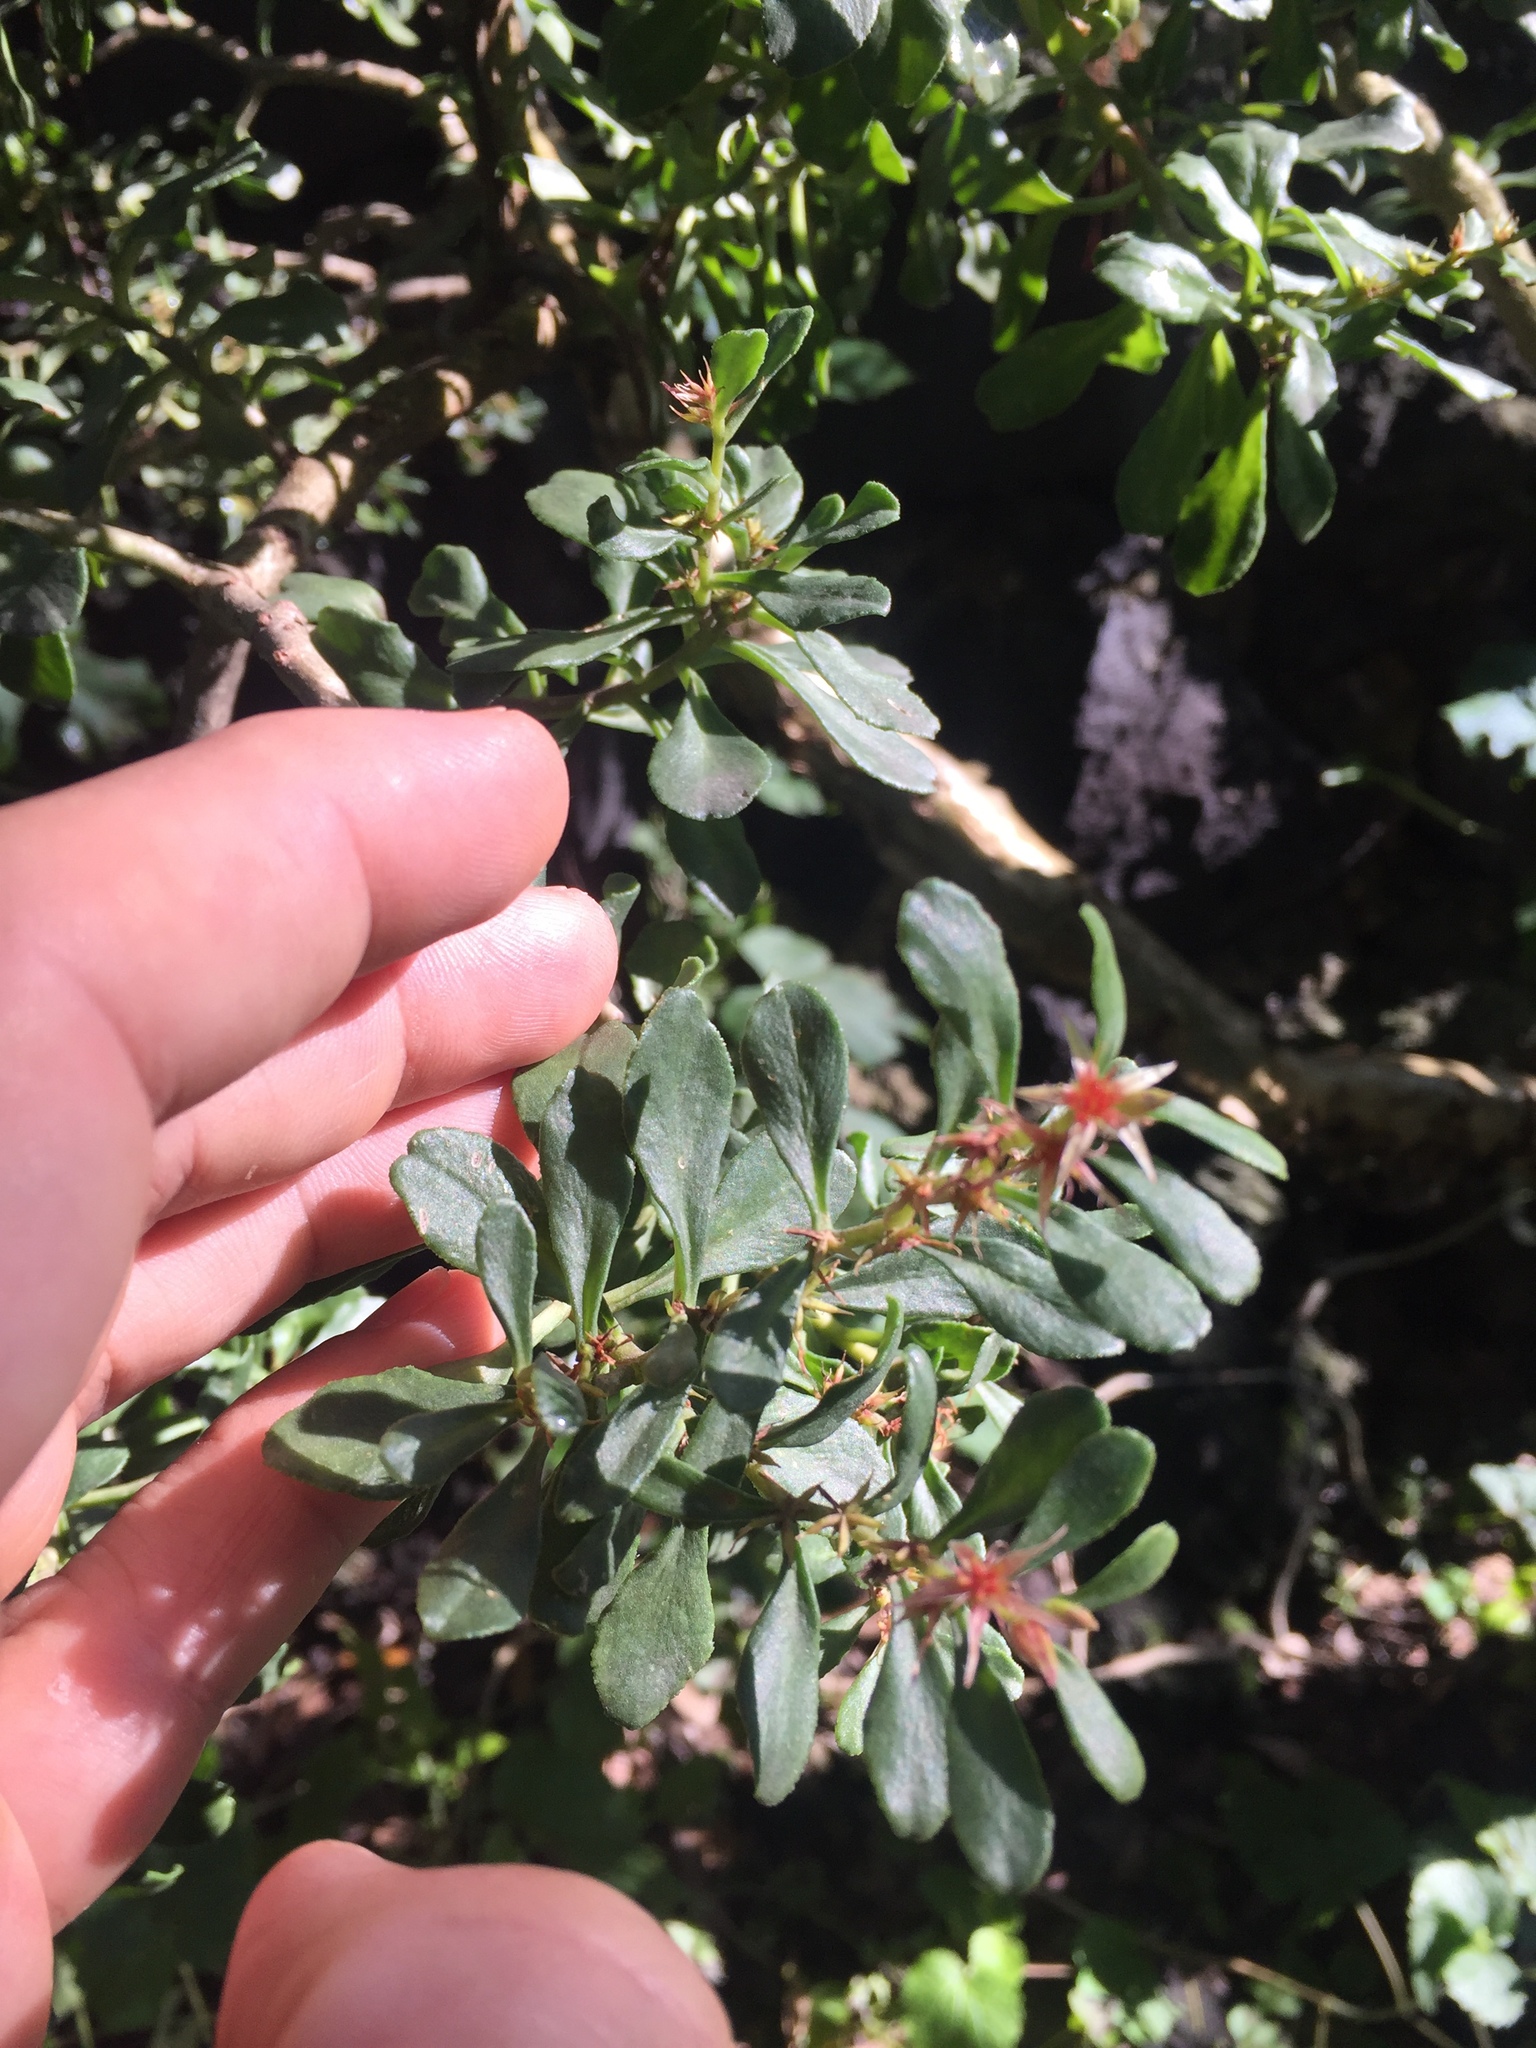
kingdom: Plantae
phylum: Tracheophyta
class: Magnoliopsida
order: Saxifragales
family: Crassulaceae
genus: Sedum
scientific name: Sedum oxypetalum
